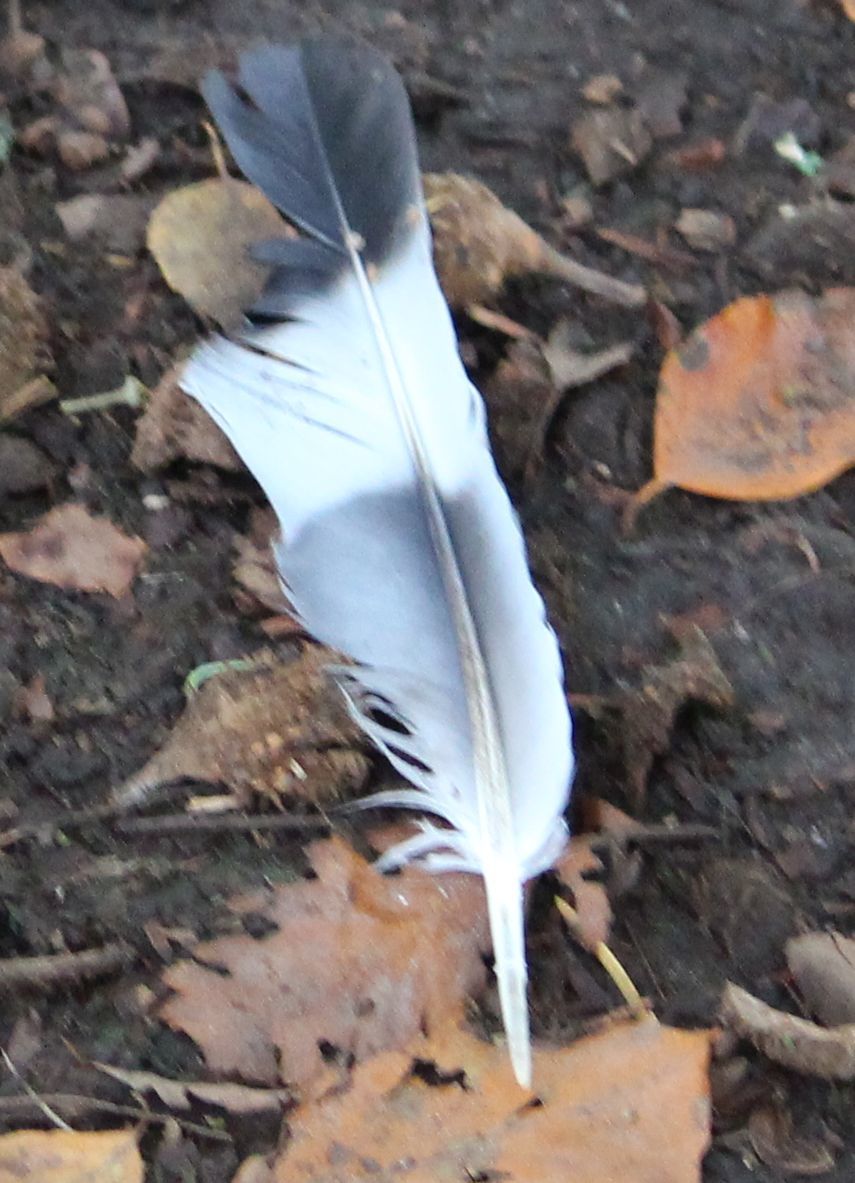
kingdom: Animalia
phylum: Chordata
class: Aves
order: Columbiformes
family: Columbidae
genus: Columba
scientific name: Columba palumbus
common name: Common wood pigeon
